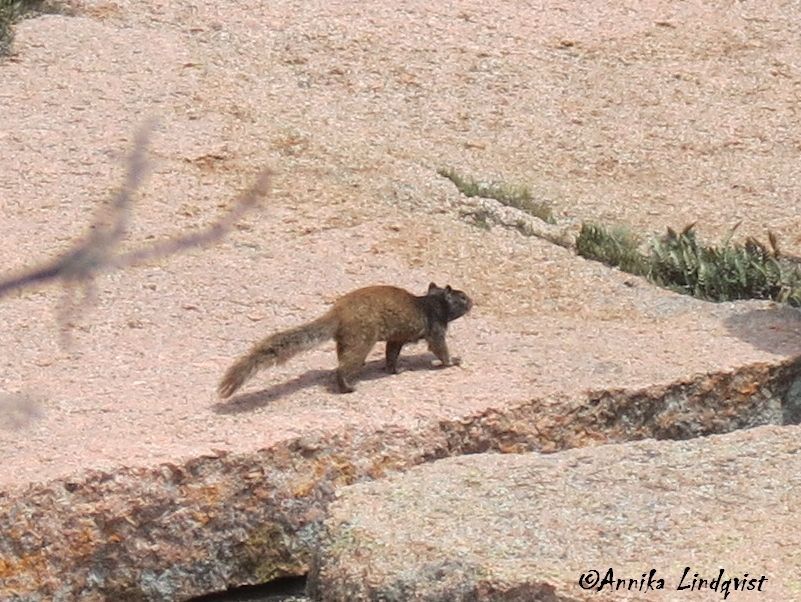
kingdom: Animalia
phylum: Chordata
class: Mammalia
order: Rodentia
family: Sciuridae
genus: Otospermophilus
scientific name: Otospermophilus variegatus
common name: Rock squirrel
